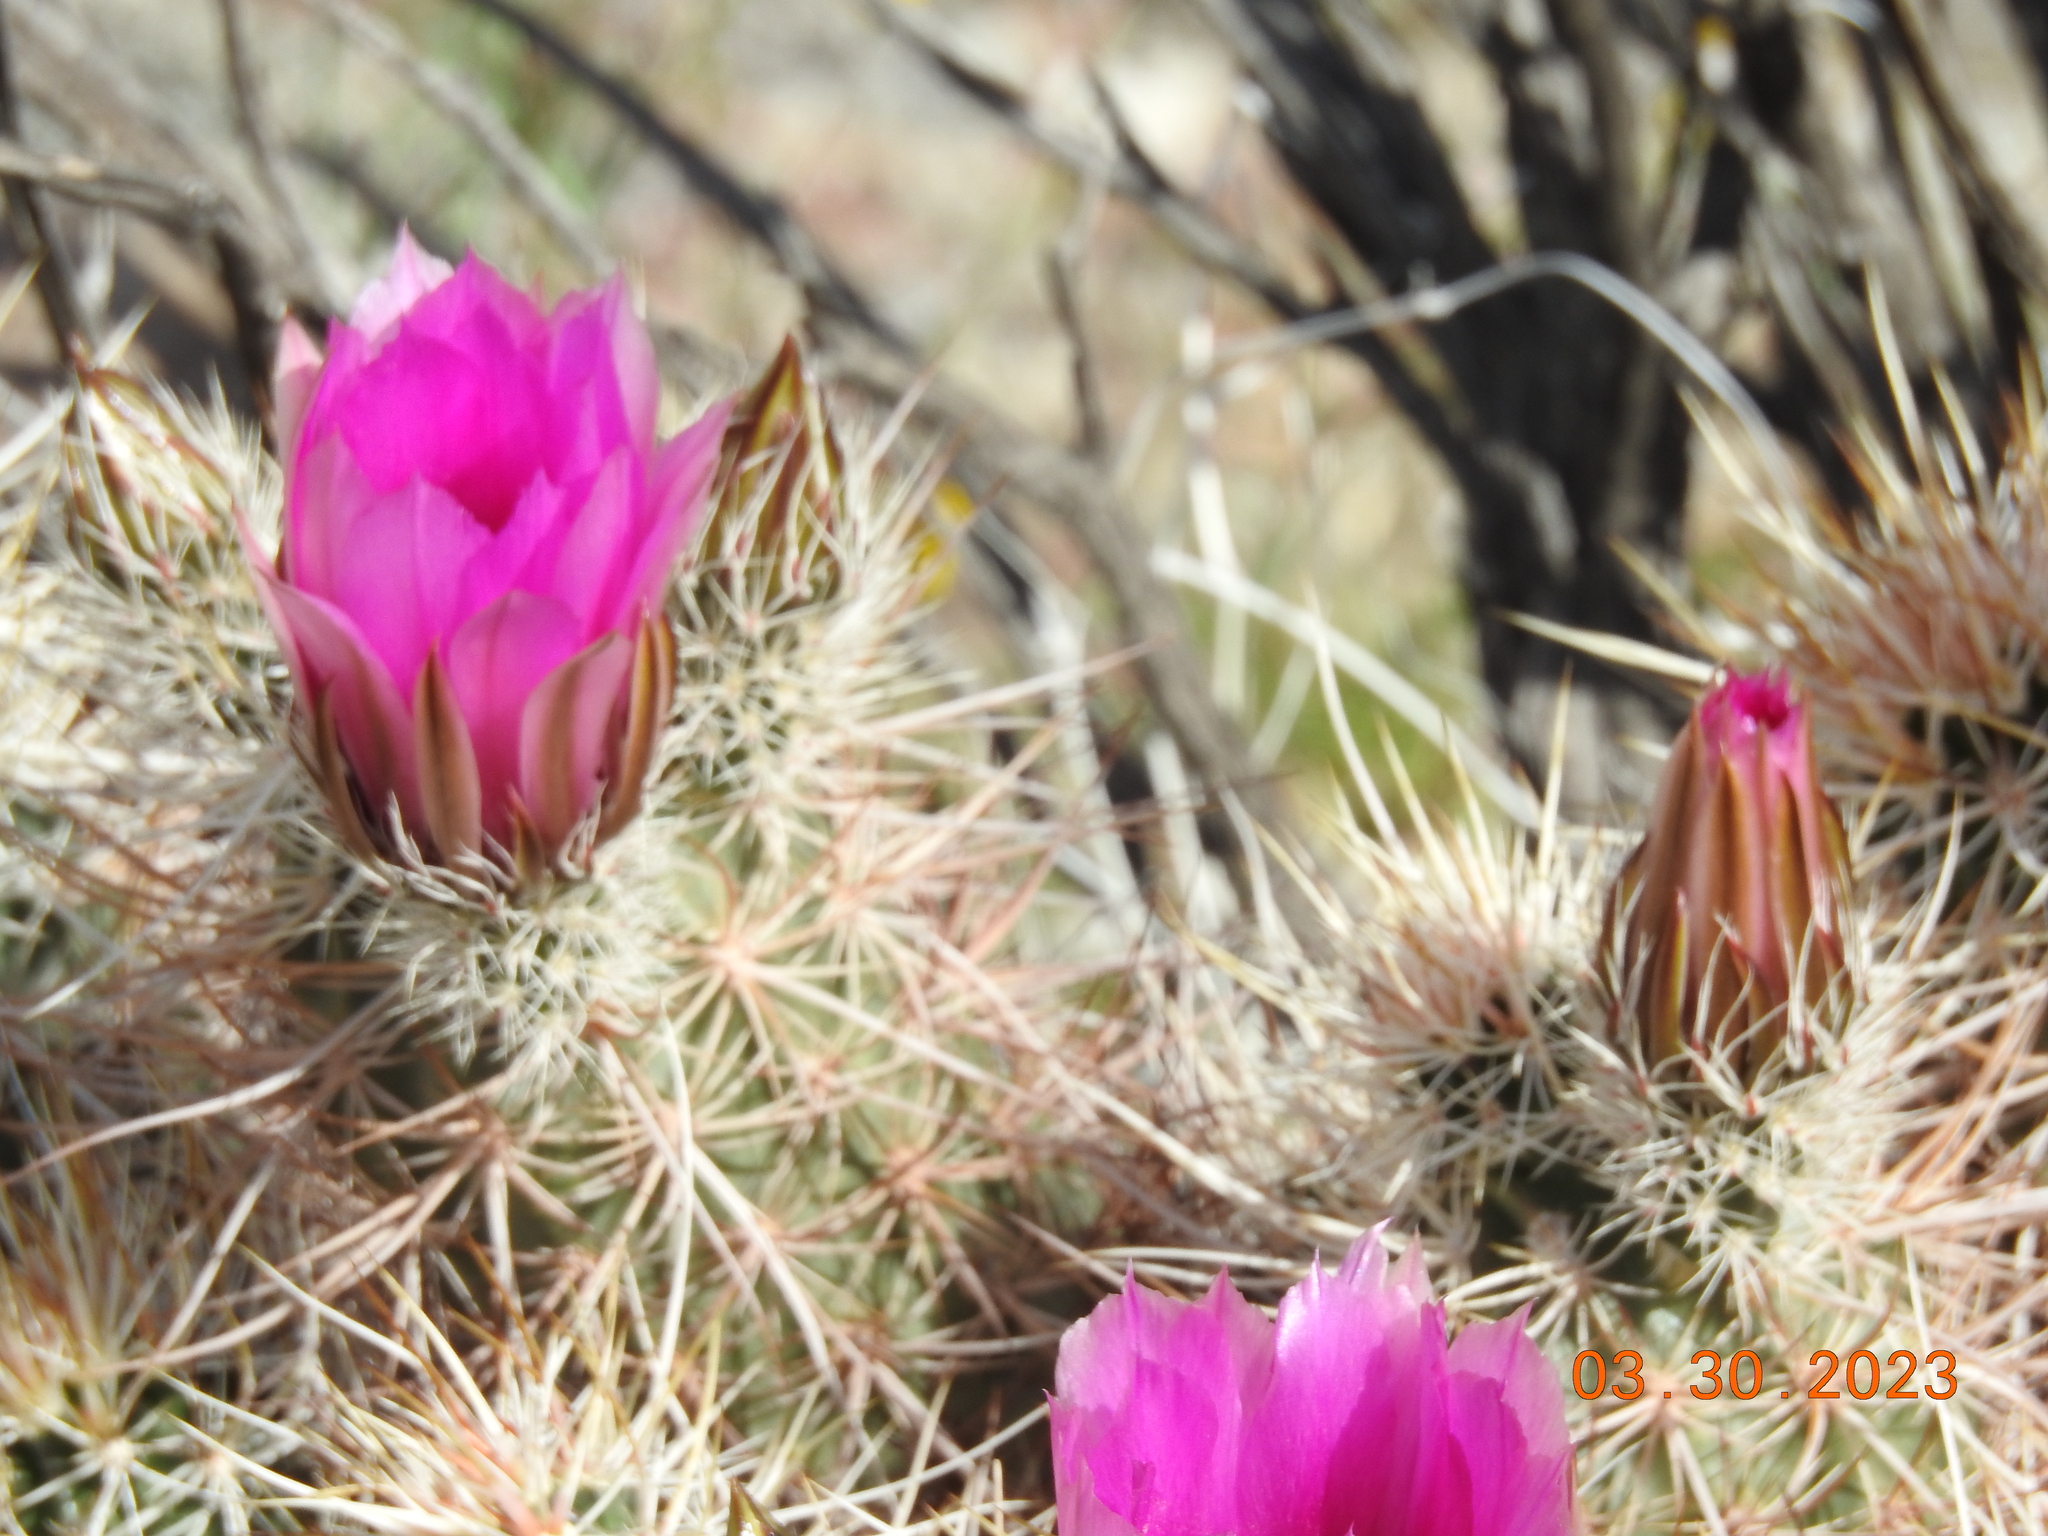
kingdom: Plantae
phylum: Tracheophyta
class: Magnoliopsida
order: Caryophyllales
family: Cactaceae
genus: Echinocereus
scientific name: Echinocereus engelmannii
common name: Engelmann's hedgehog cactus
